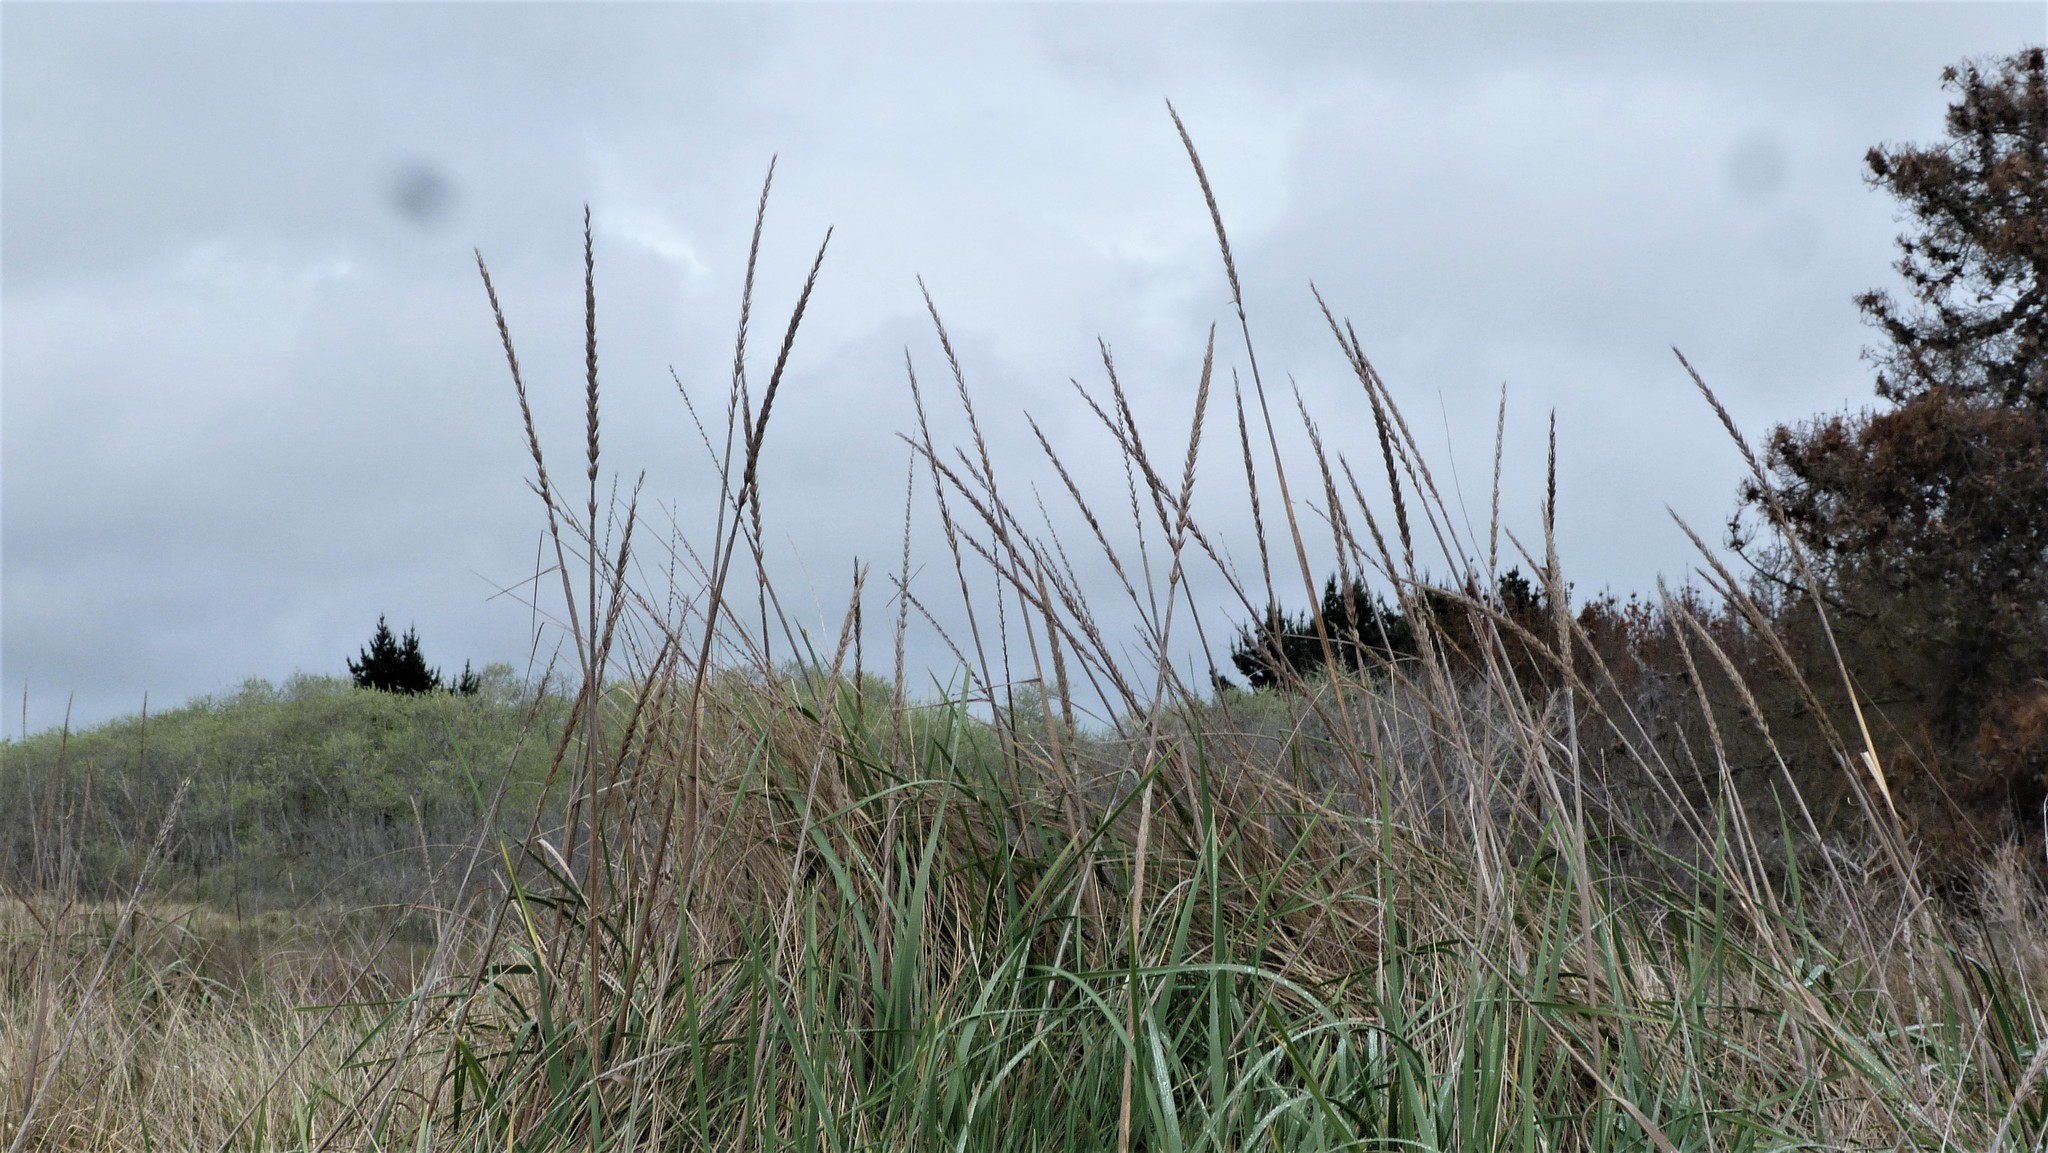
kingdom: Plantae
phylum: Tracheophyta
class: Liliopsida
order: Poales
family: Poaceae
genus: Leymus
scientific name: Leymus arenarius
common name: Lyme-grass
